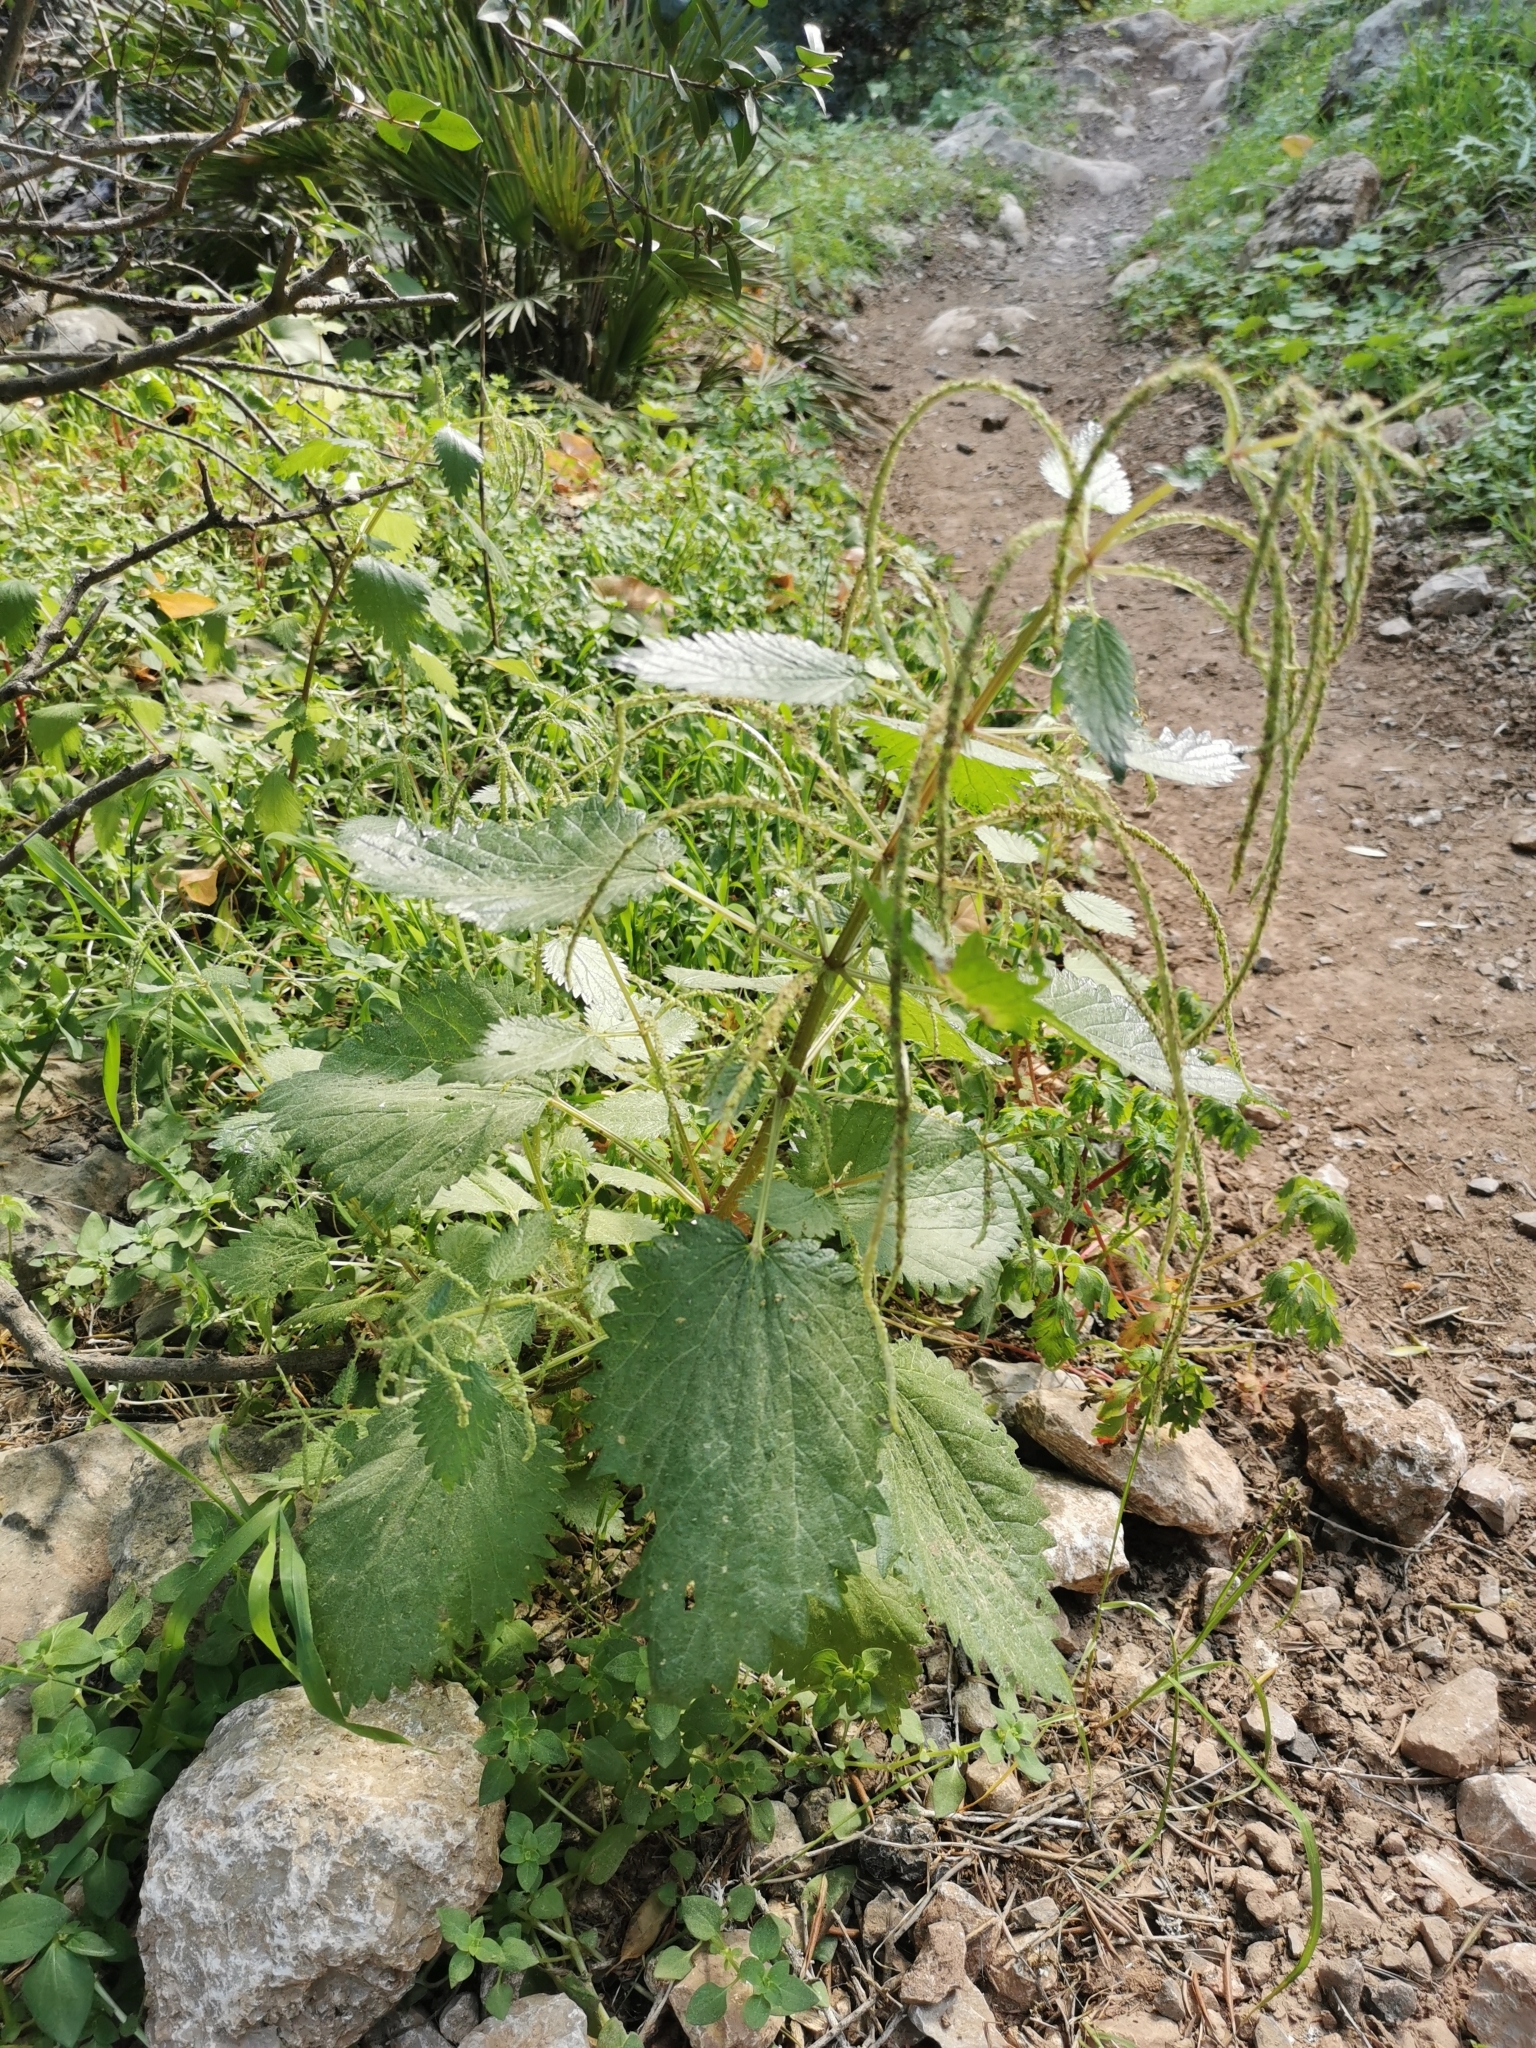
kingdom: Plantae
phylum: Tracheophyta
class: Magnoliopsida
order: Rosales
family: Urticaceae
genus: Urtica
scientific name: Urtica membranacea
